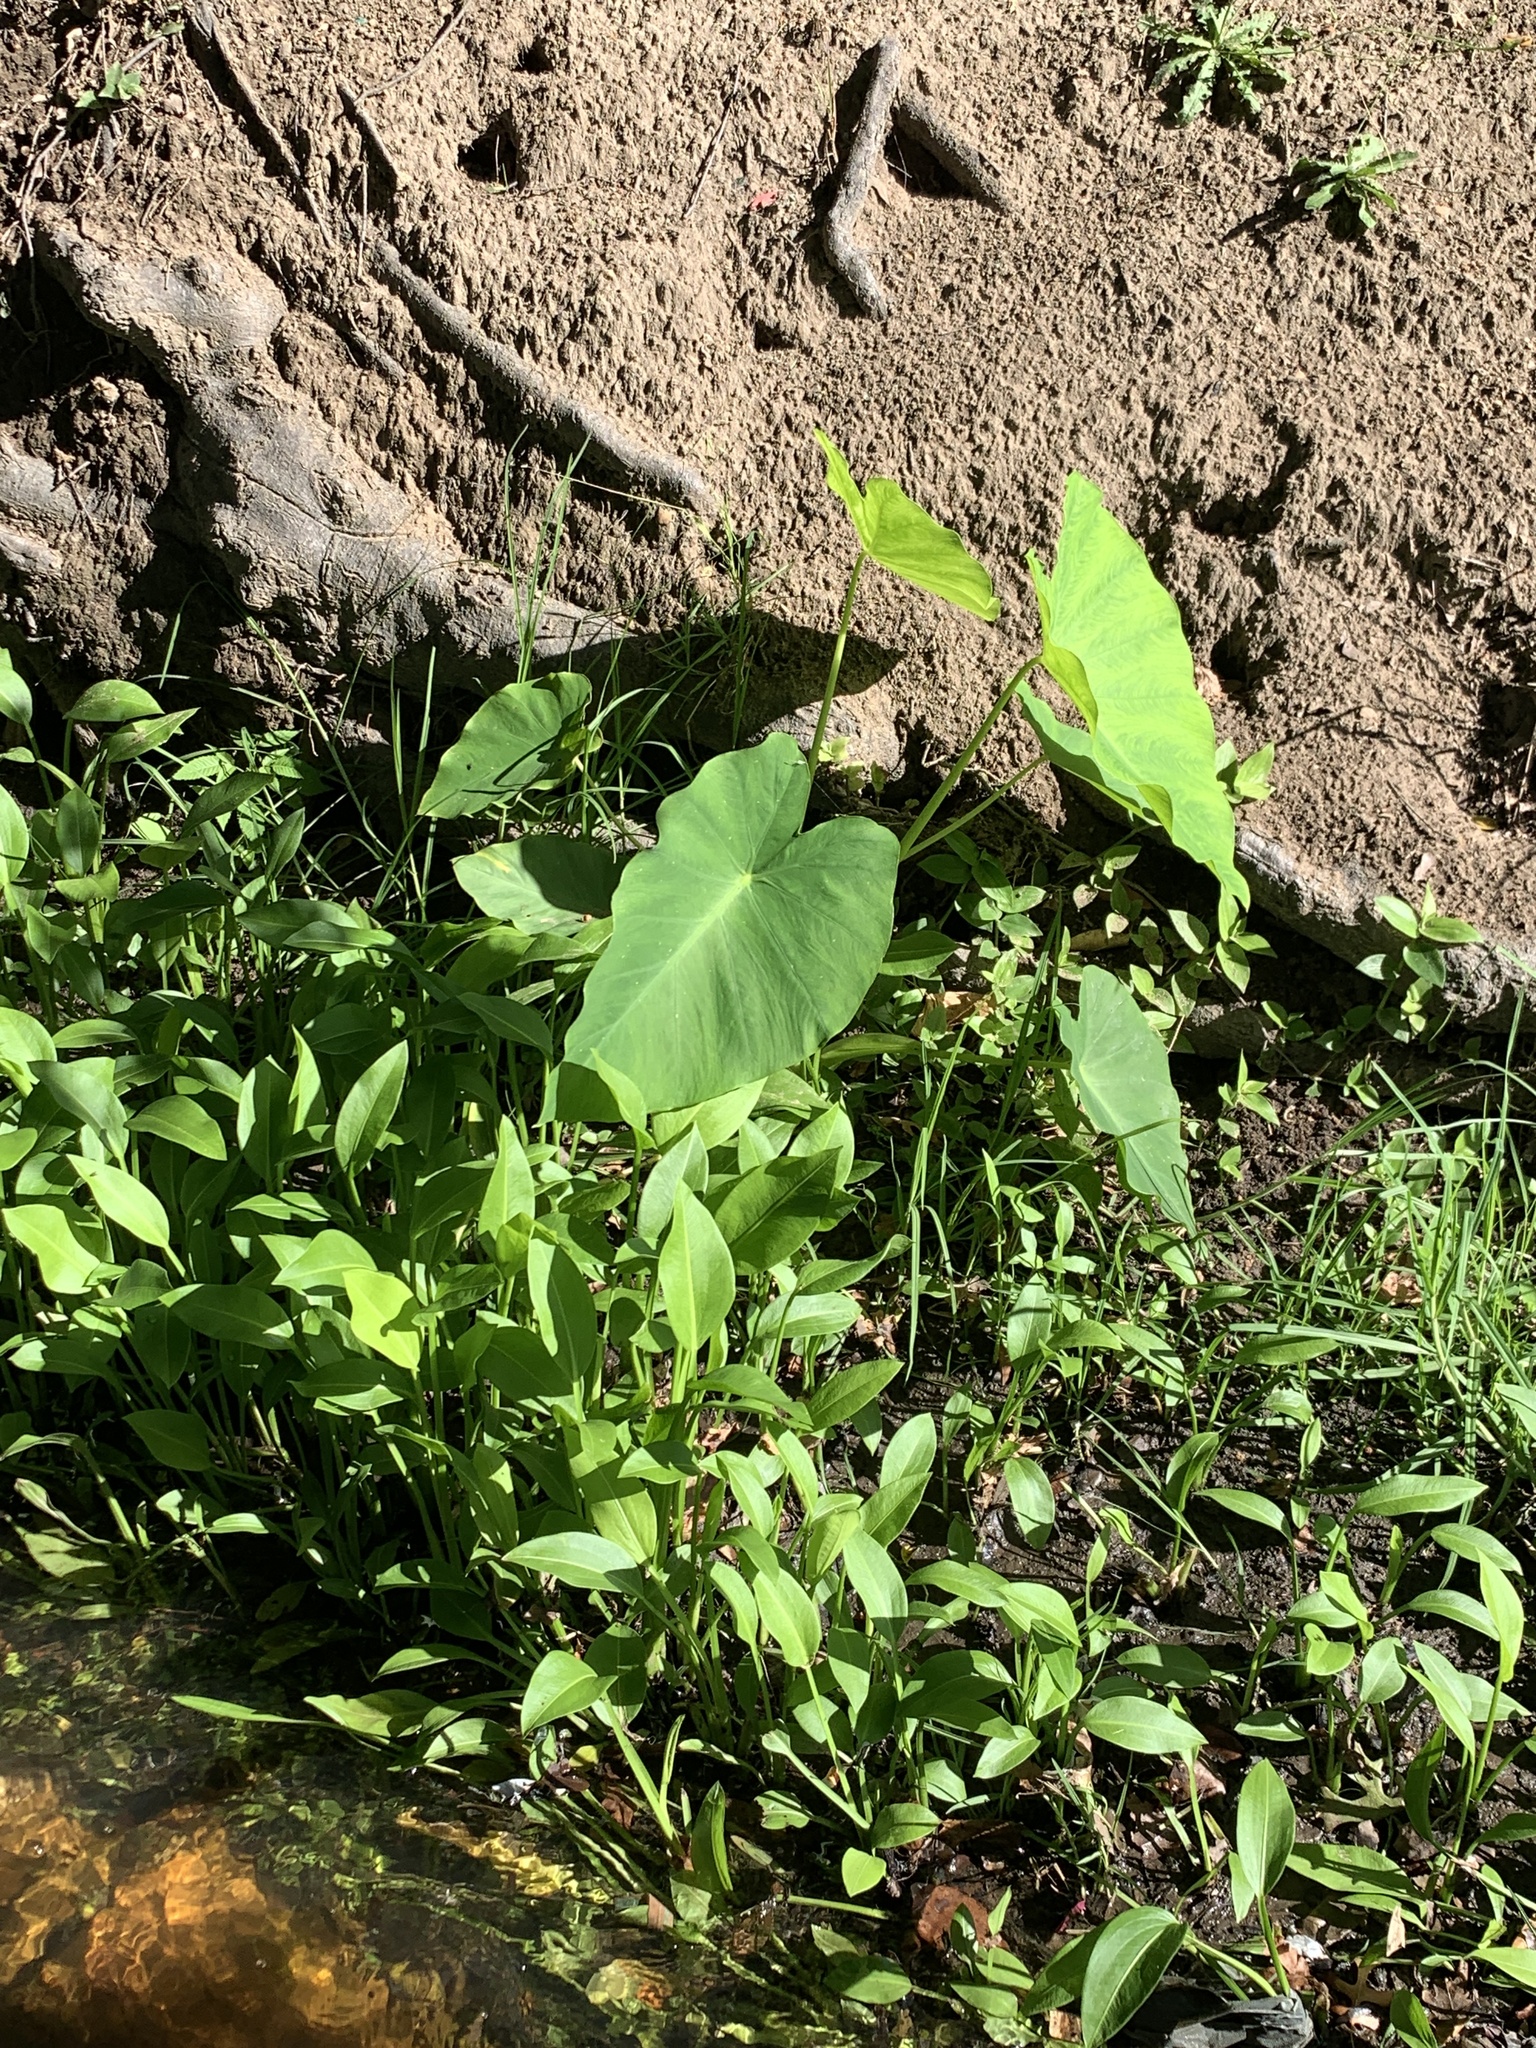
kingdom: Plantae
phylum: Tracheophyta
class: Liliopsida
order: Alismatales
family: Araceae
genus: Colocasia
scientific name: Colocasia esculenta
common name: Taro
